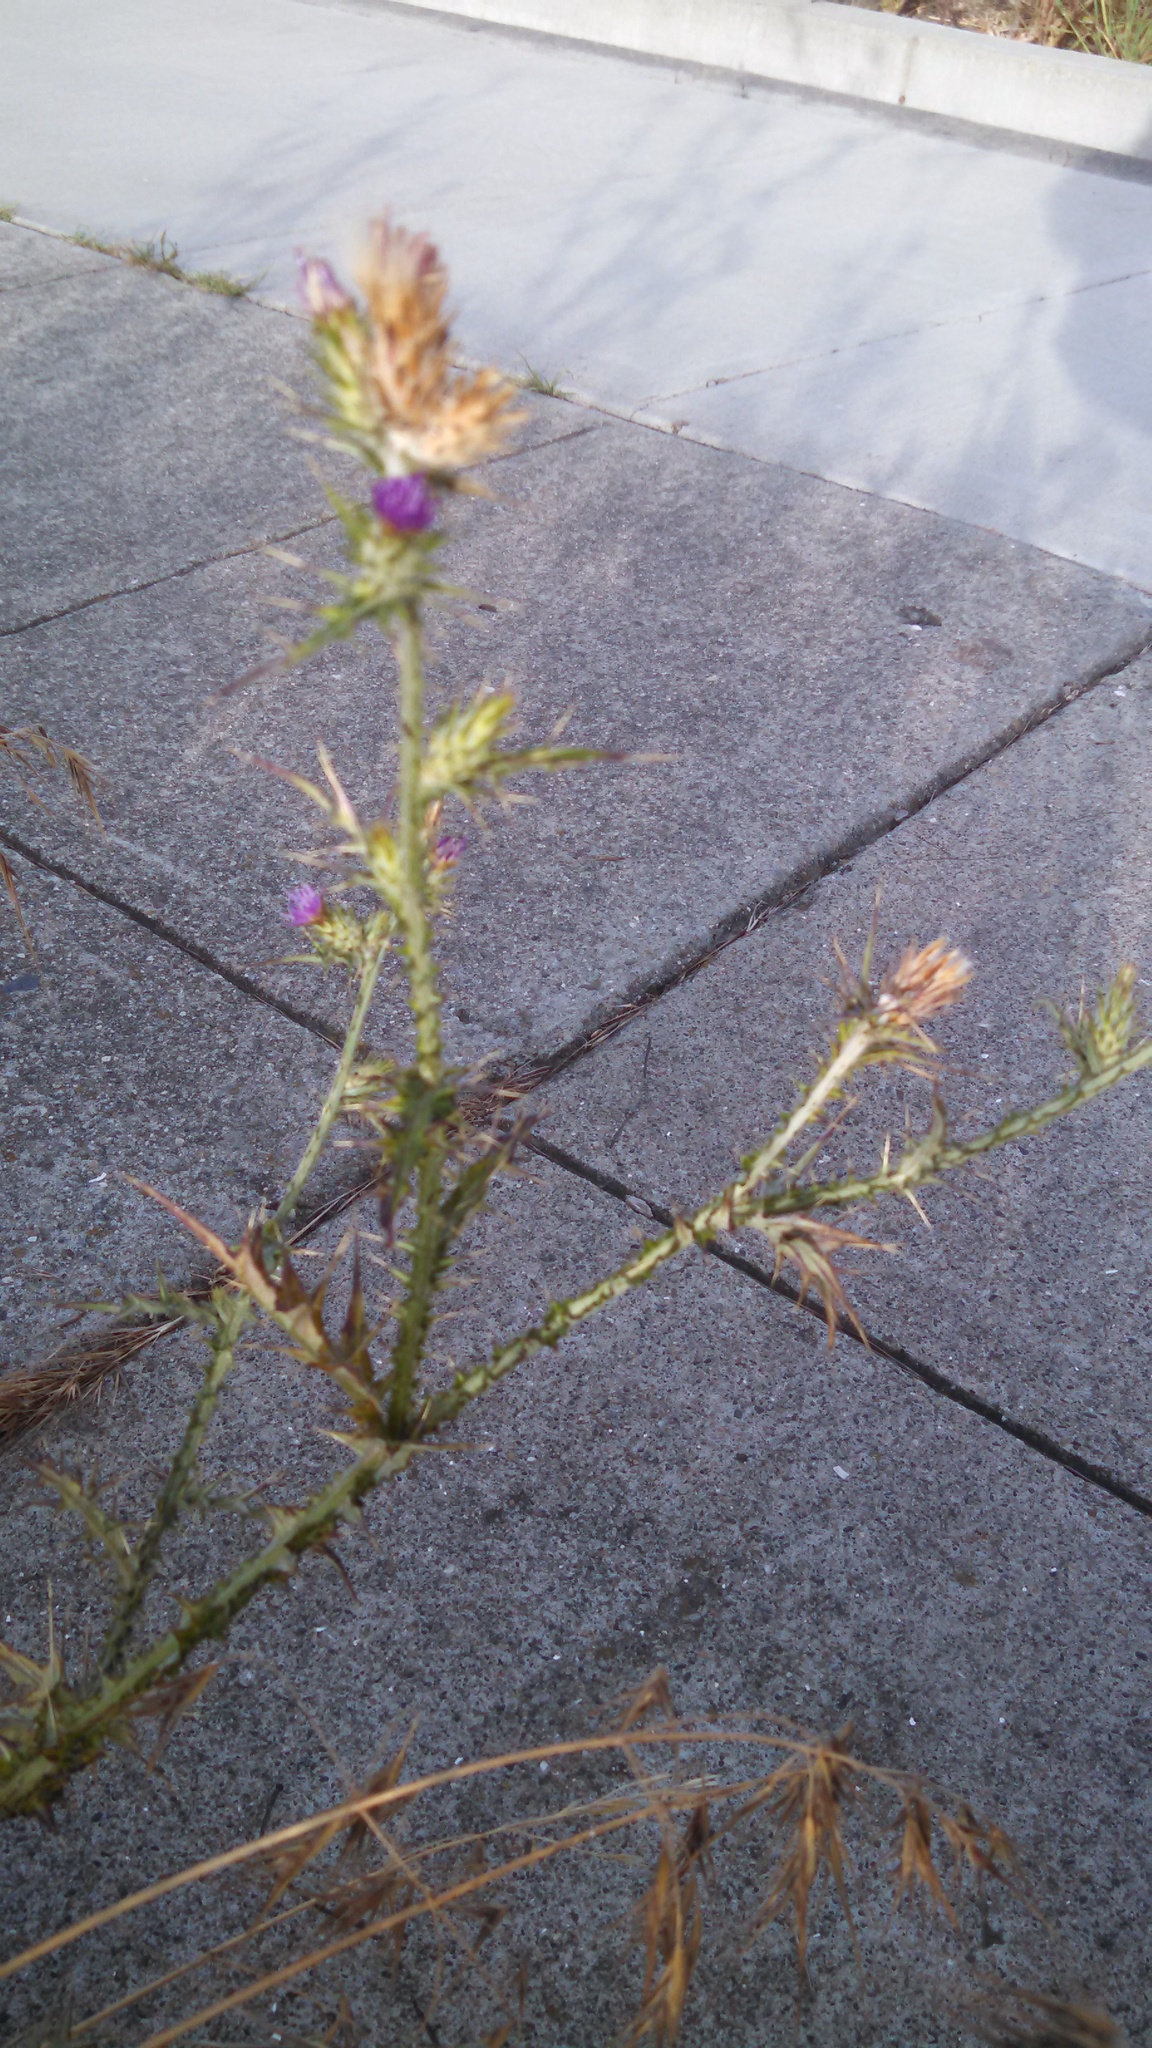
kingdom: Plantae
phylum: Tracheophyta
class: Magnoliopsida
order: Asterales
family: Asteraceae
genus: Carduus
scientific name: Carduus pycnocephalus
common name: Plymouth thistle
